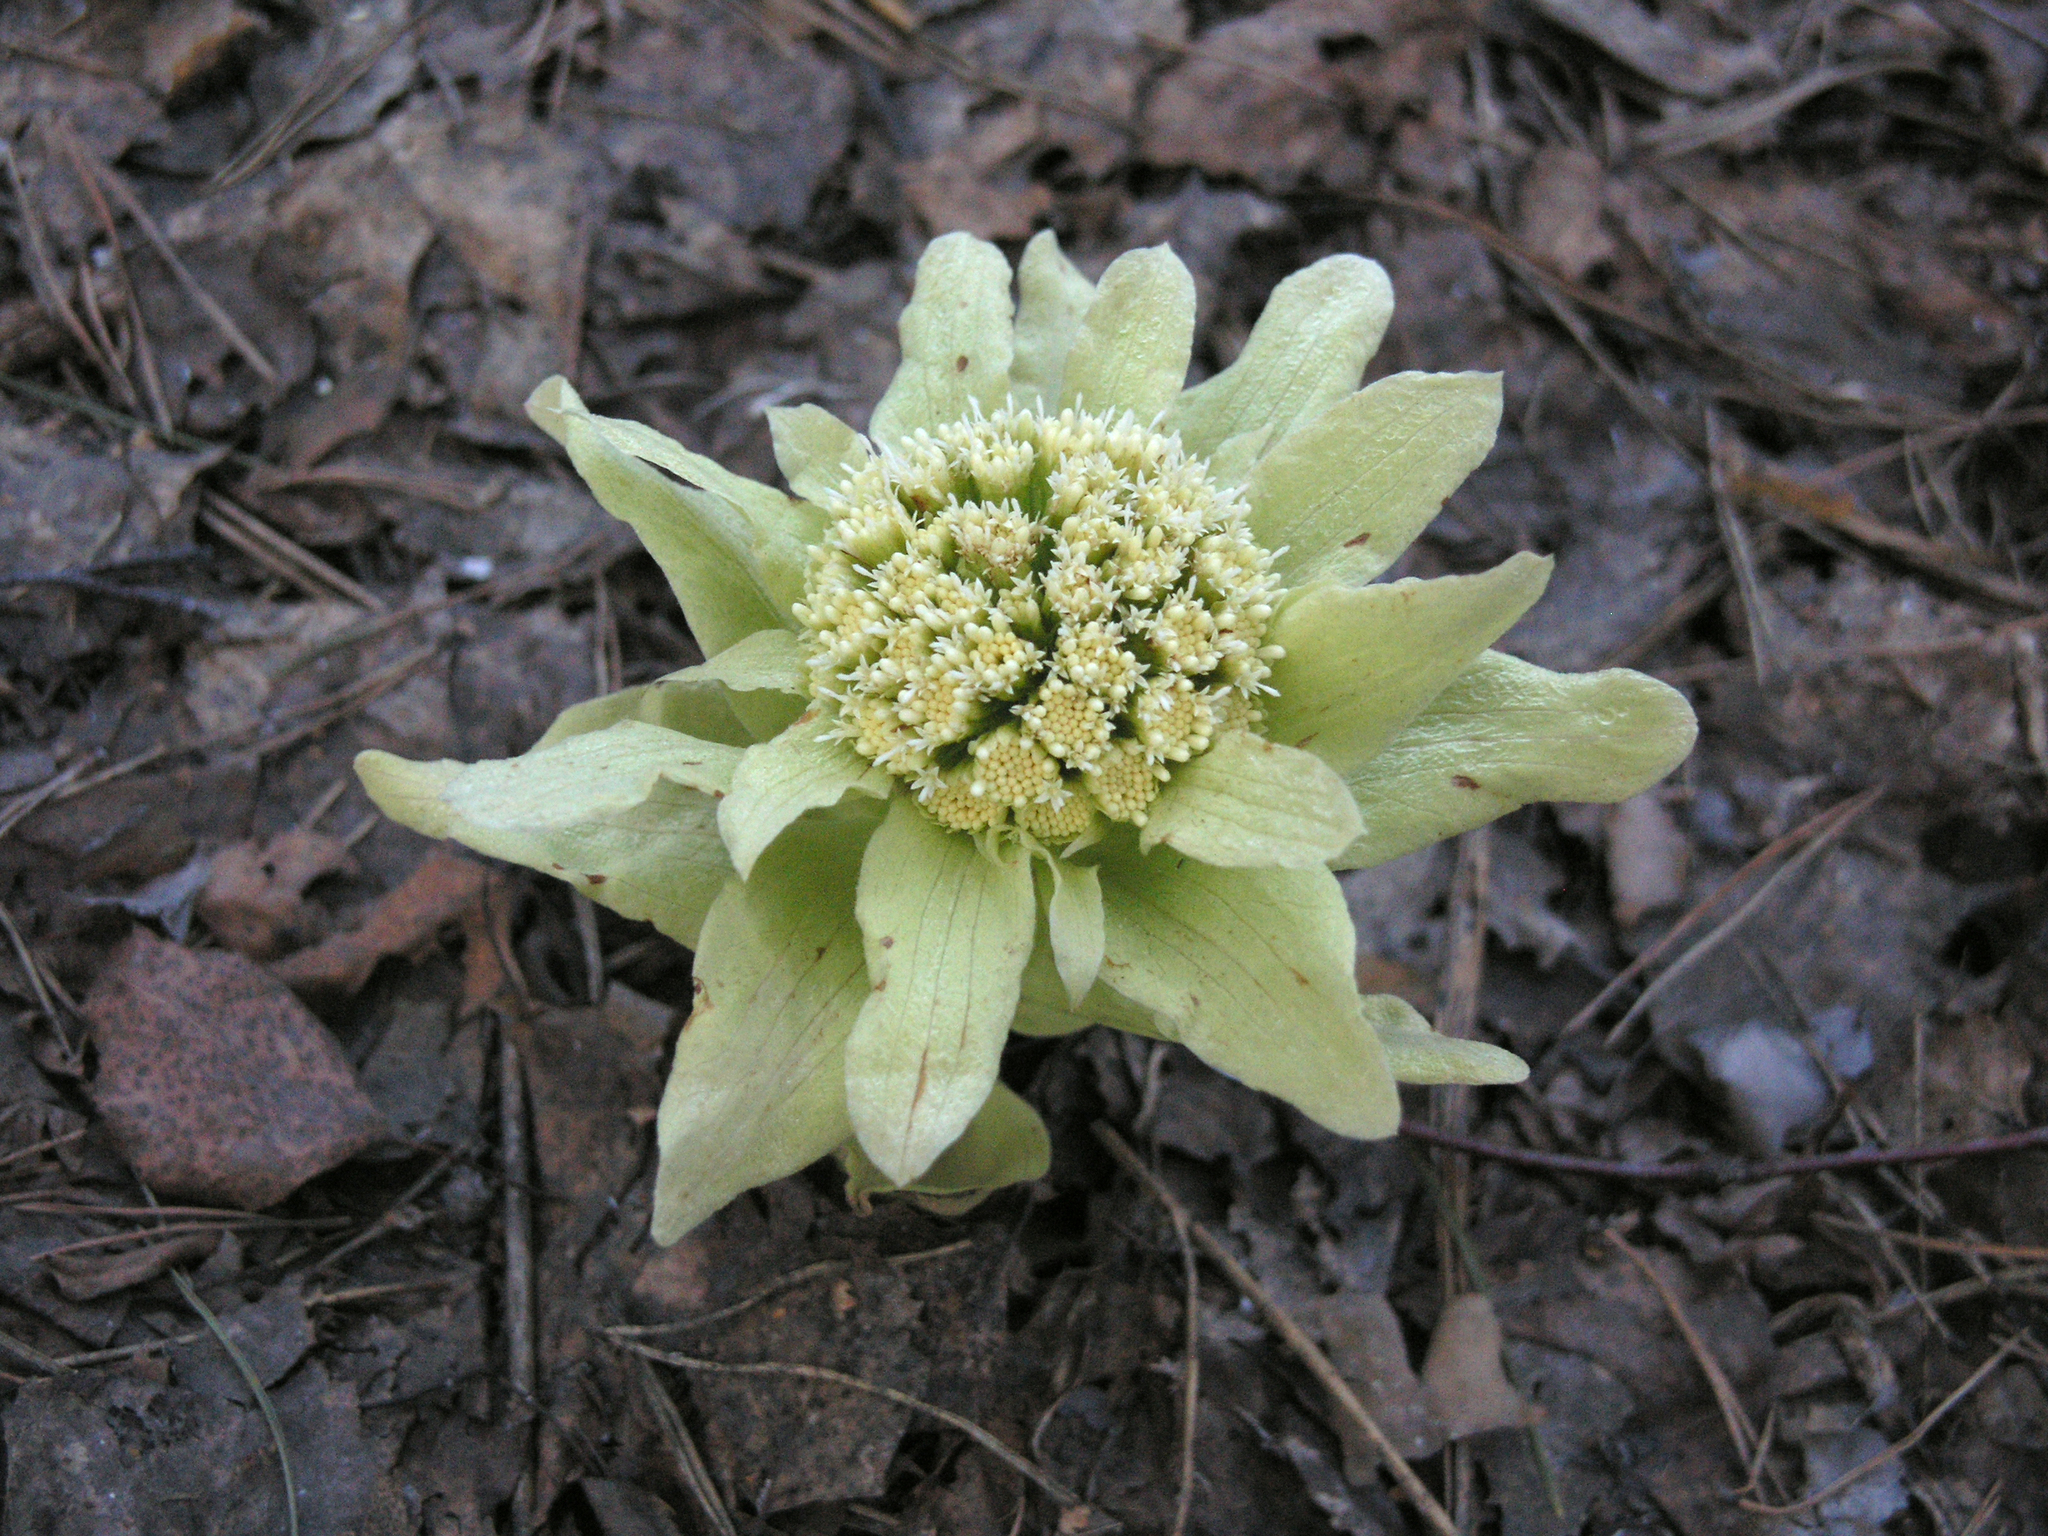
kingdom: Plantae
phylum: Tracheophyta
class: Magnoliopsida
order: Asterales
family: Asteraceae
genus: Petasites
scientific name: Petasites japonicus
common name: Giant butterbur
